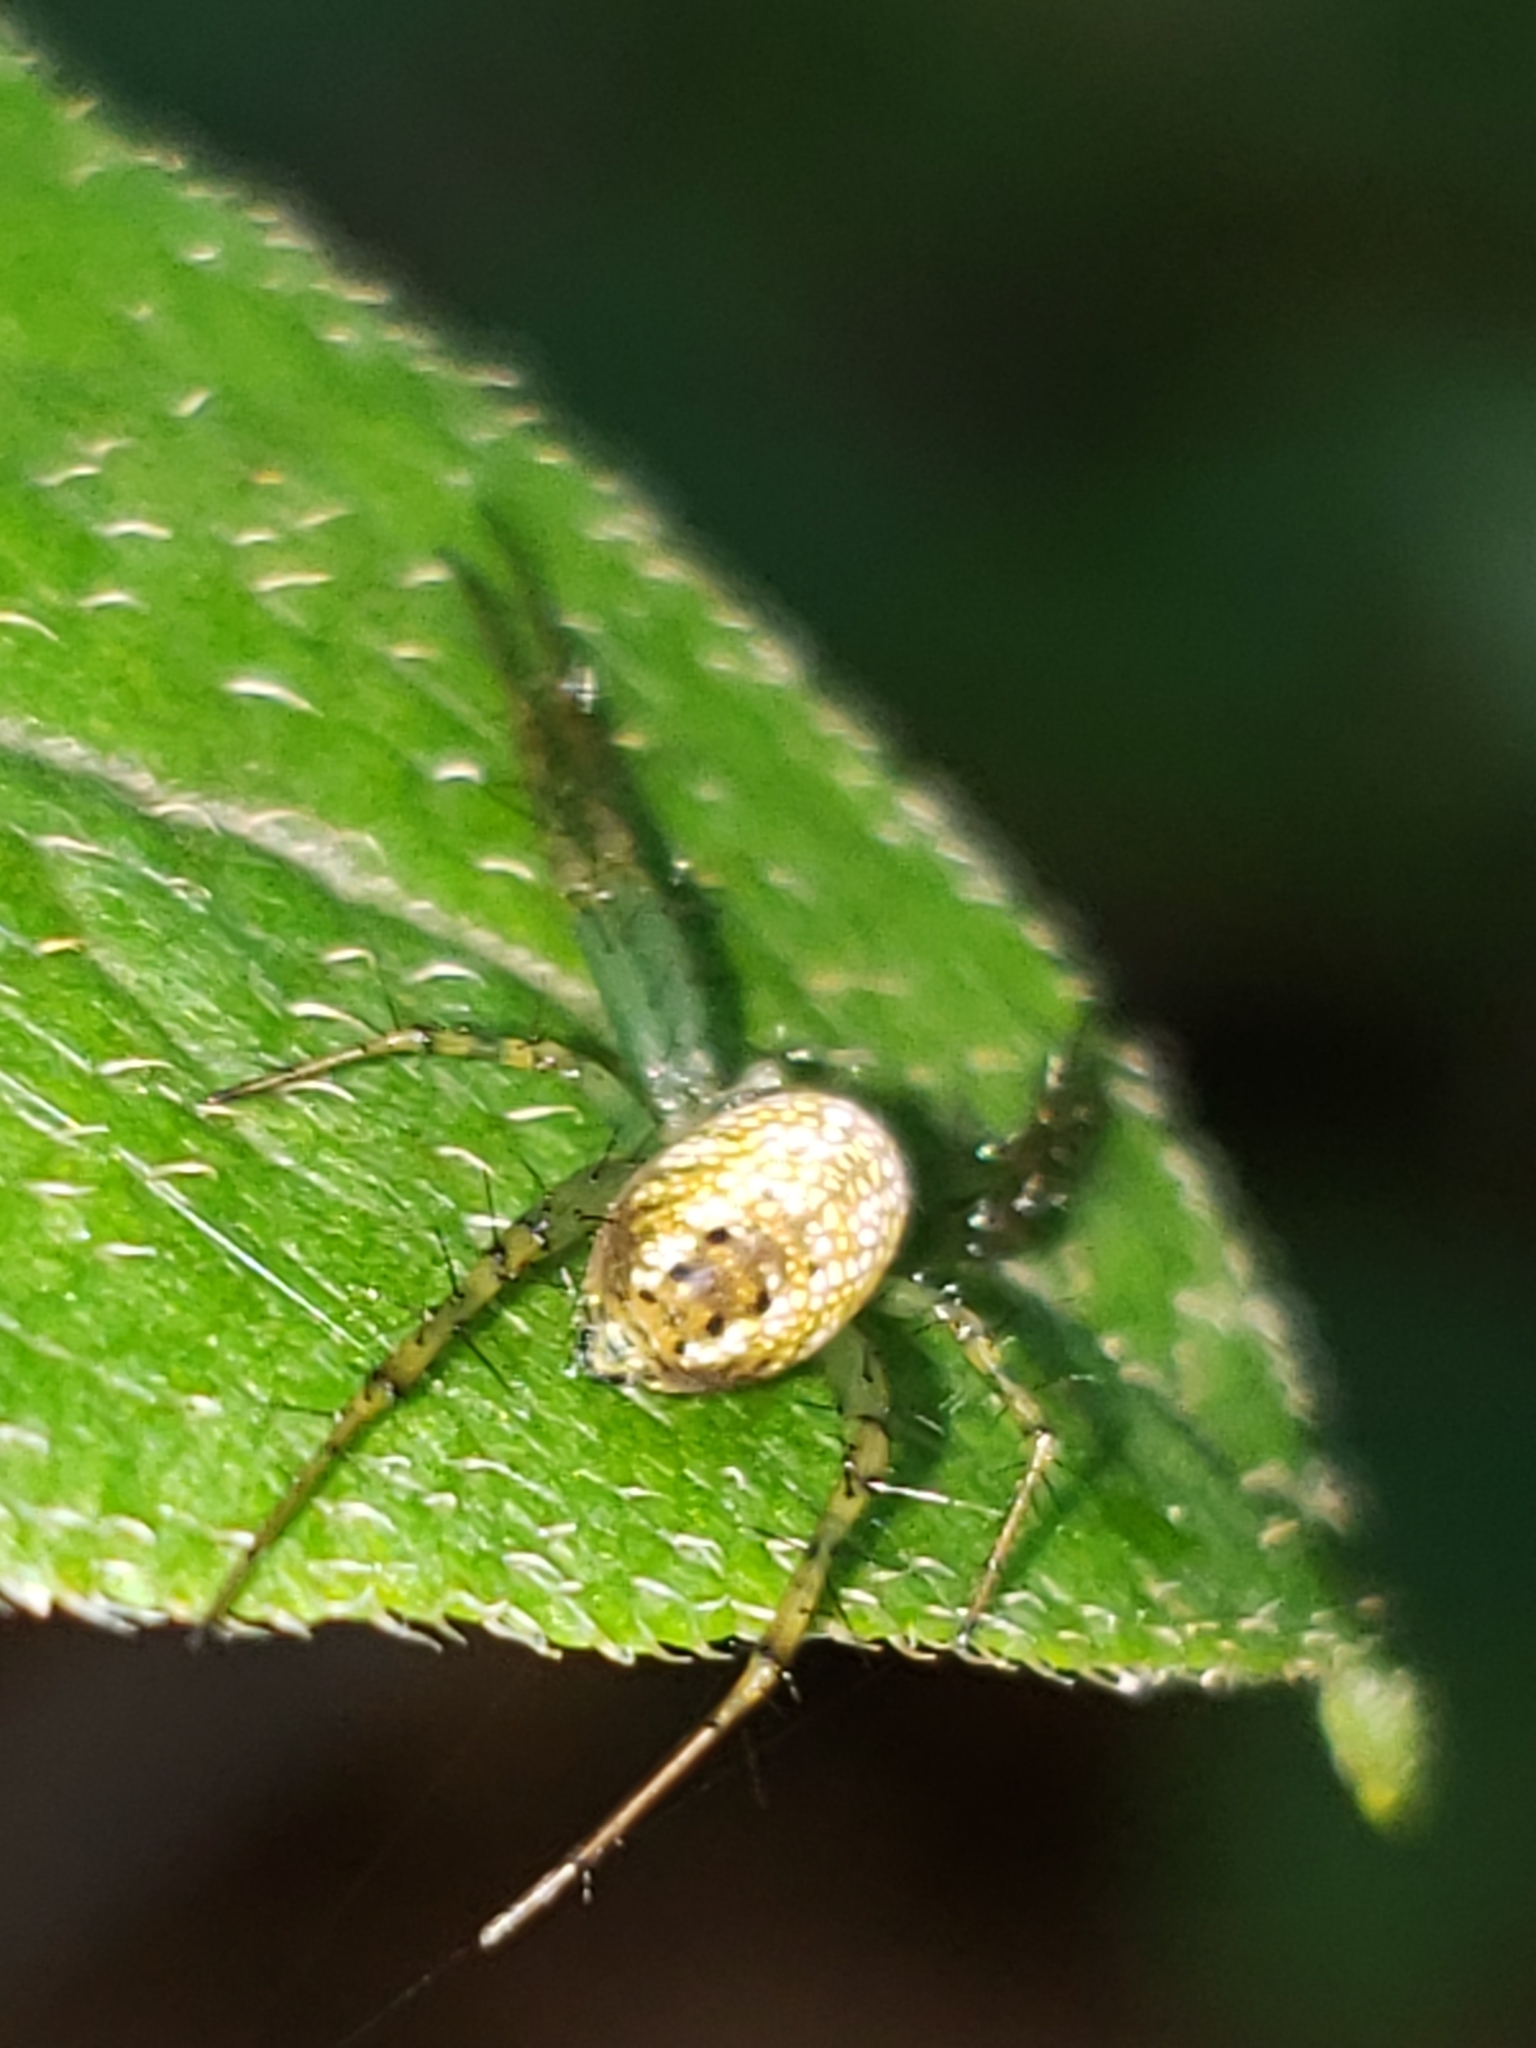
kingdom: Animalia
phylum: Arthropoda
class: Arachnida
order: Araneae
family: Araneidae
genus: Mangora
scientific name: Mangora maculata
